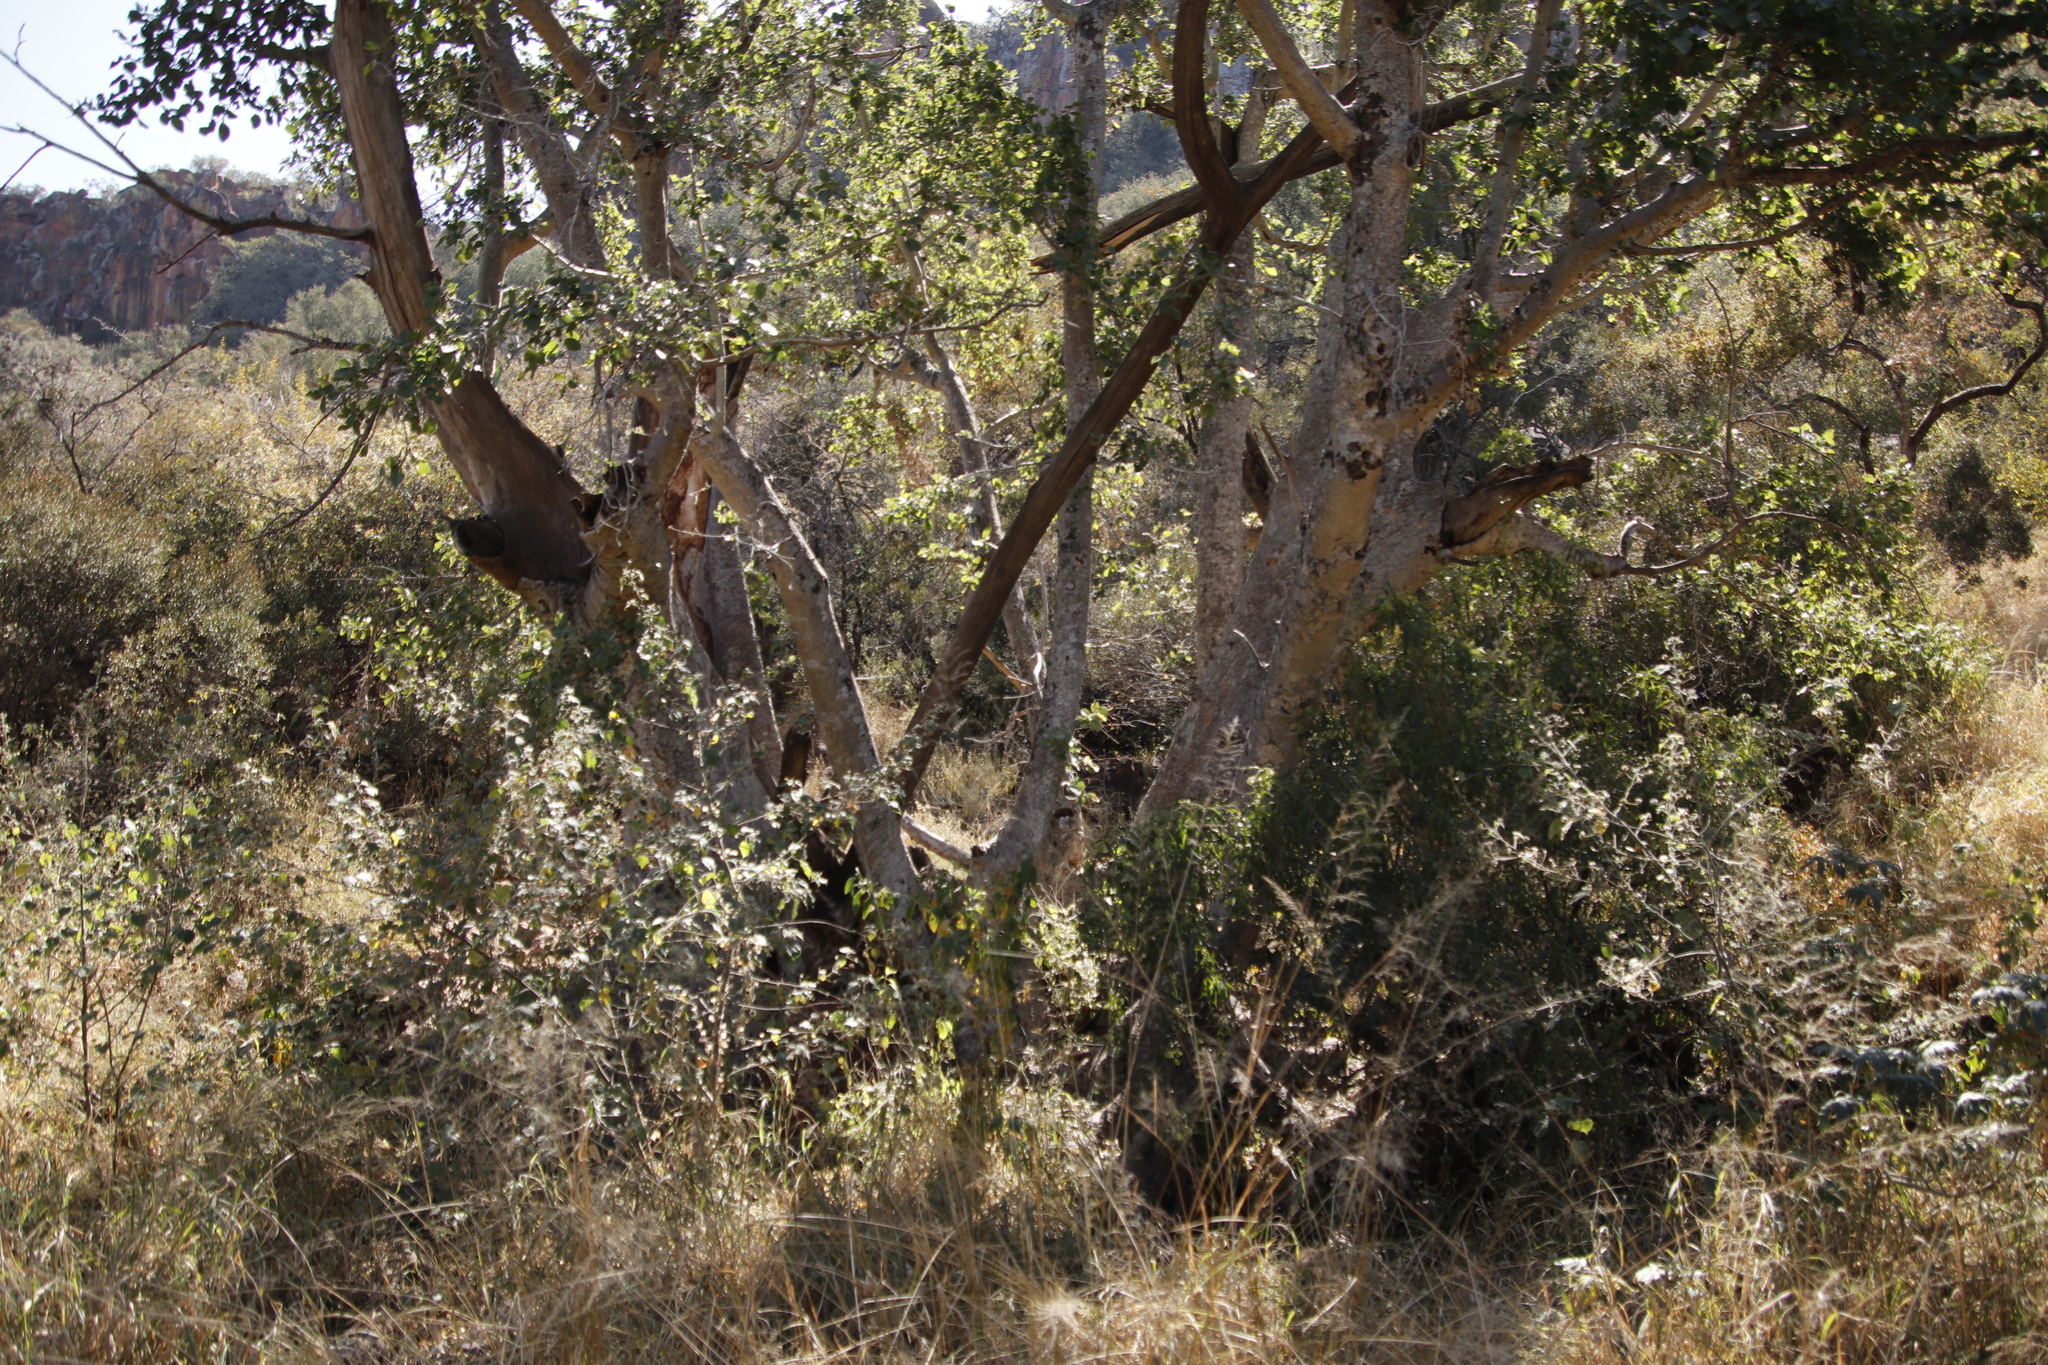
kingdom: Plantae
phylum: Tracheophyta
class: Magnoliopsida
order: Rosales
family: Moraceae
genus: Ficus
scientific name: Ficus sycomorus
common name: Sycomore
